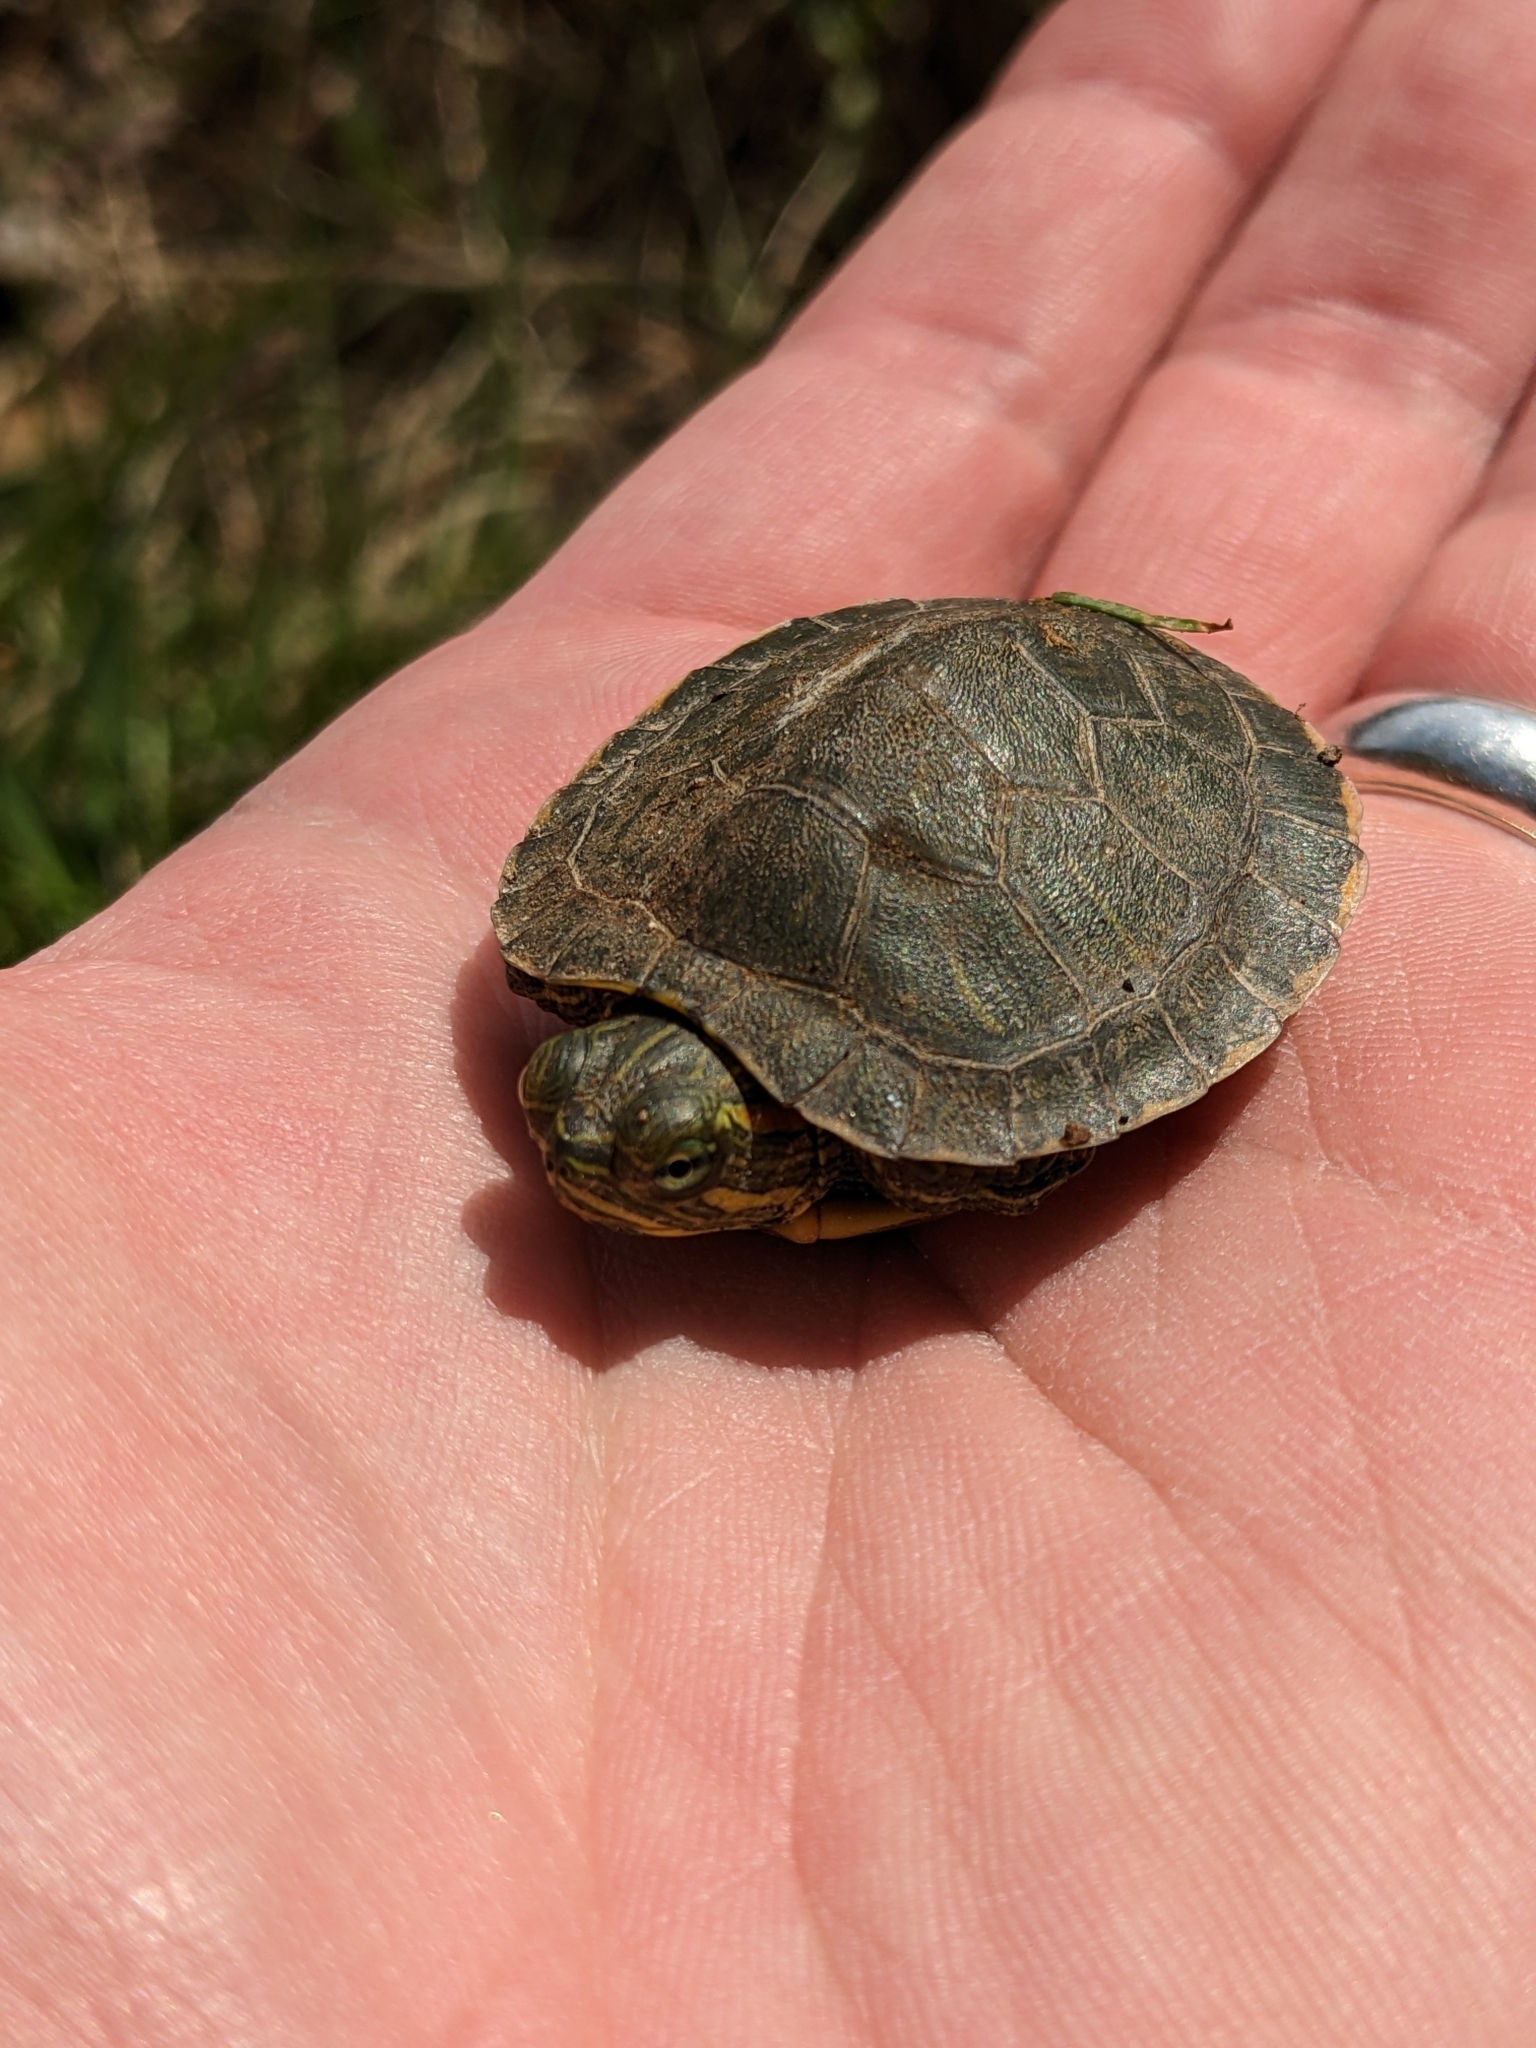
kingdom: Animalia
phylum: Chordata
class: Testudines
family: Emydidae
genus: Trachemys
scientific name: Trachemys scripta
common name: Slider
